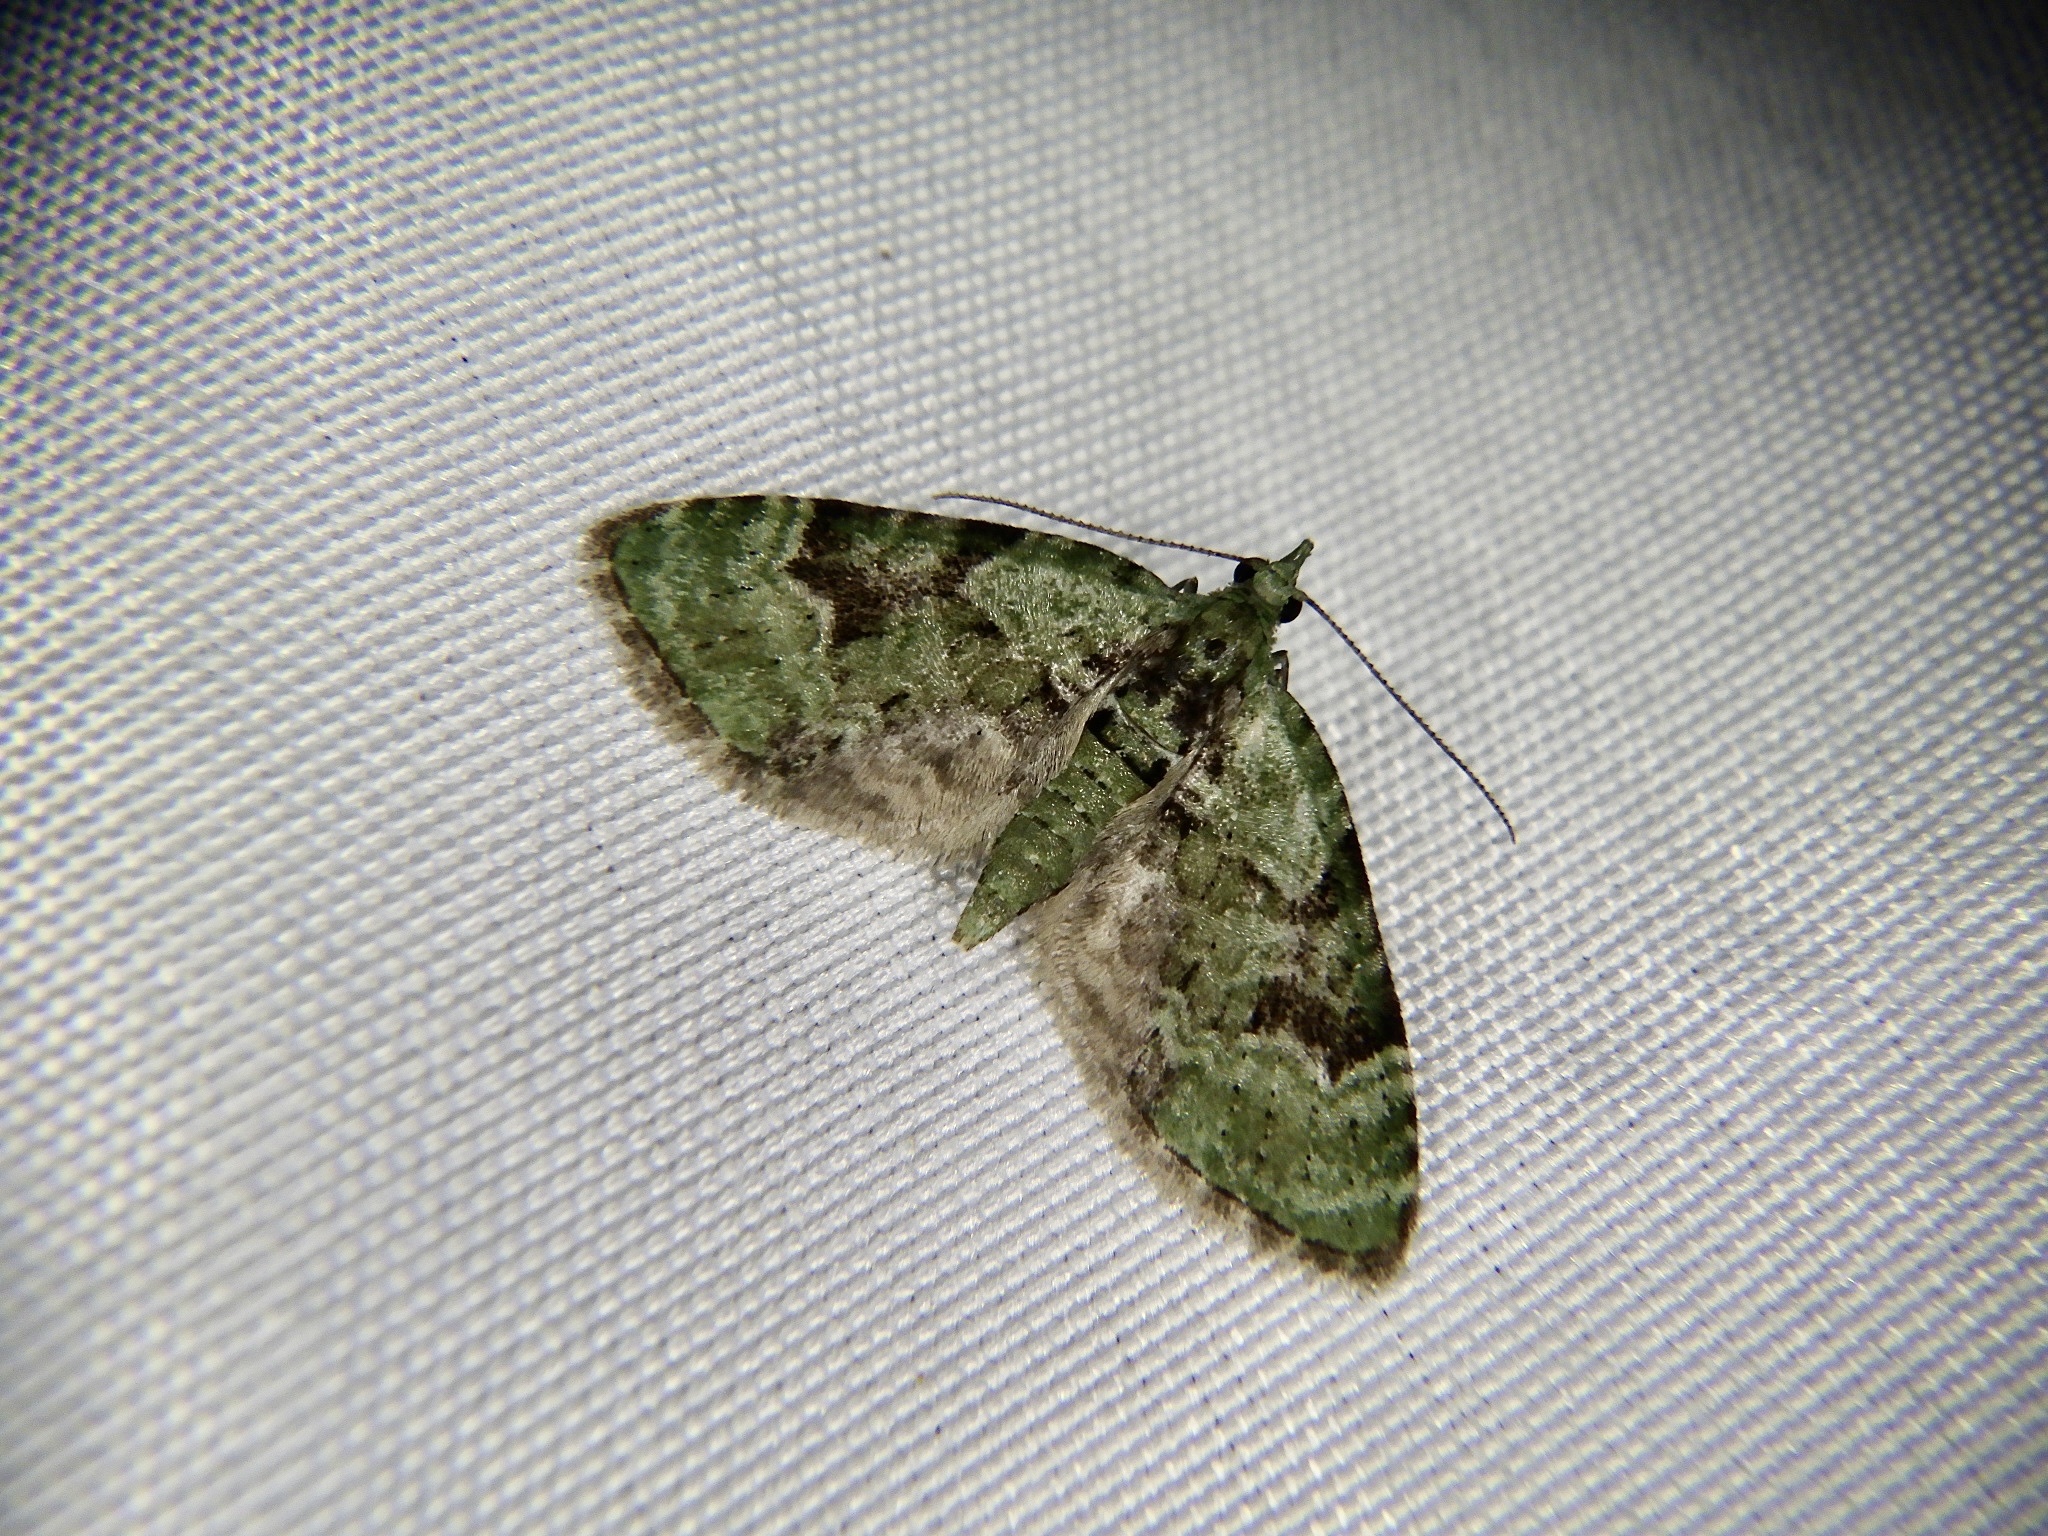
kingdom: Animalia
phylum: Arthropoda
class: Insecta
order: Lepidoptera
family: Geometridae
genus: Chloroclystis
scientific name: Chloroclystis v-ata
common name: V-pug
